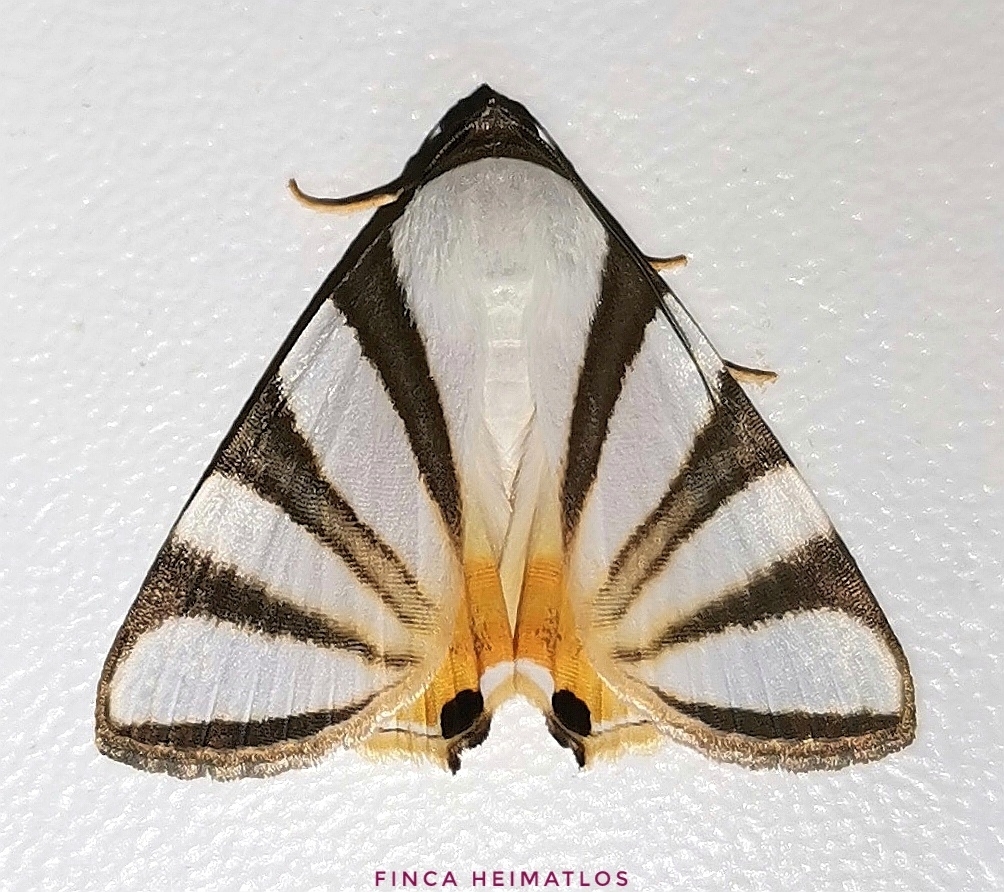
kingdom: Animalia
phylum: Arthropoda
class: Insecta
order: Lepidoptera
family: Erebidae
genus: Eulepidotis
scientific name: Eulepidotis preclara
